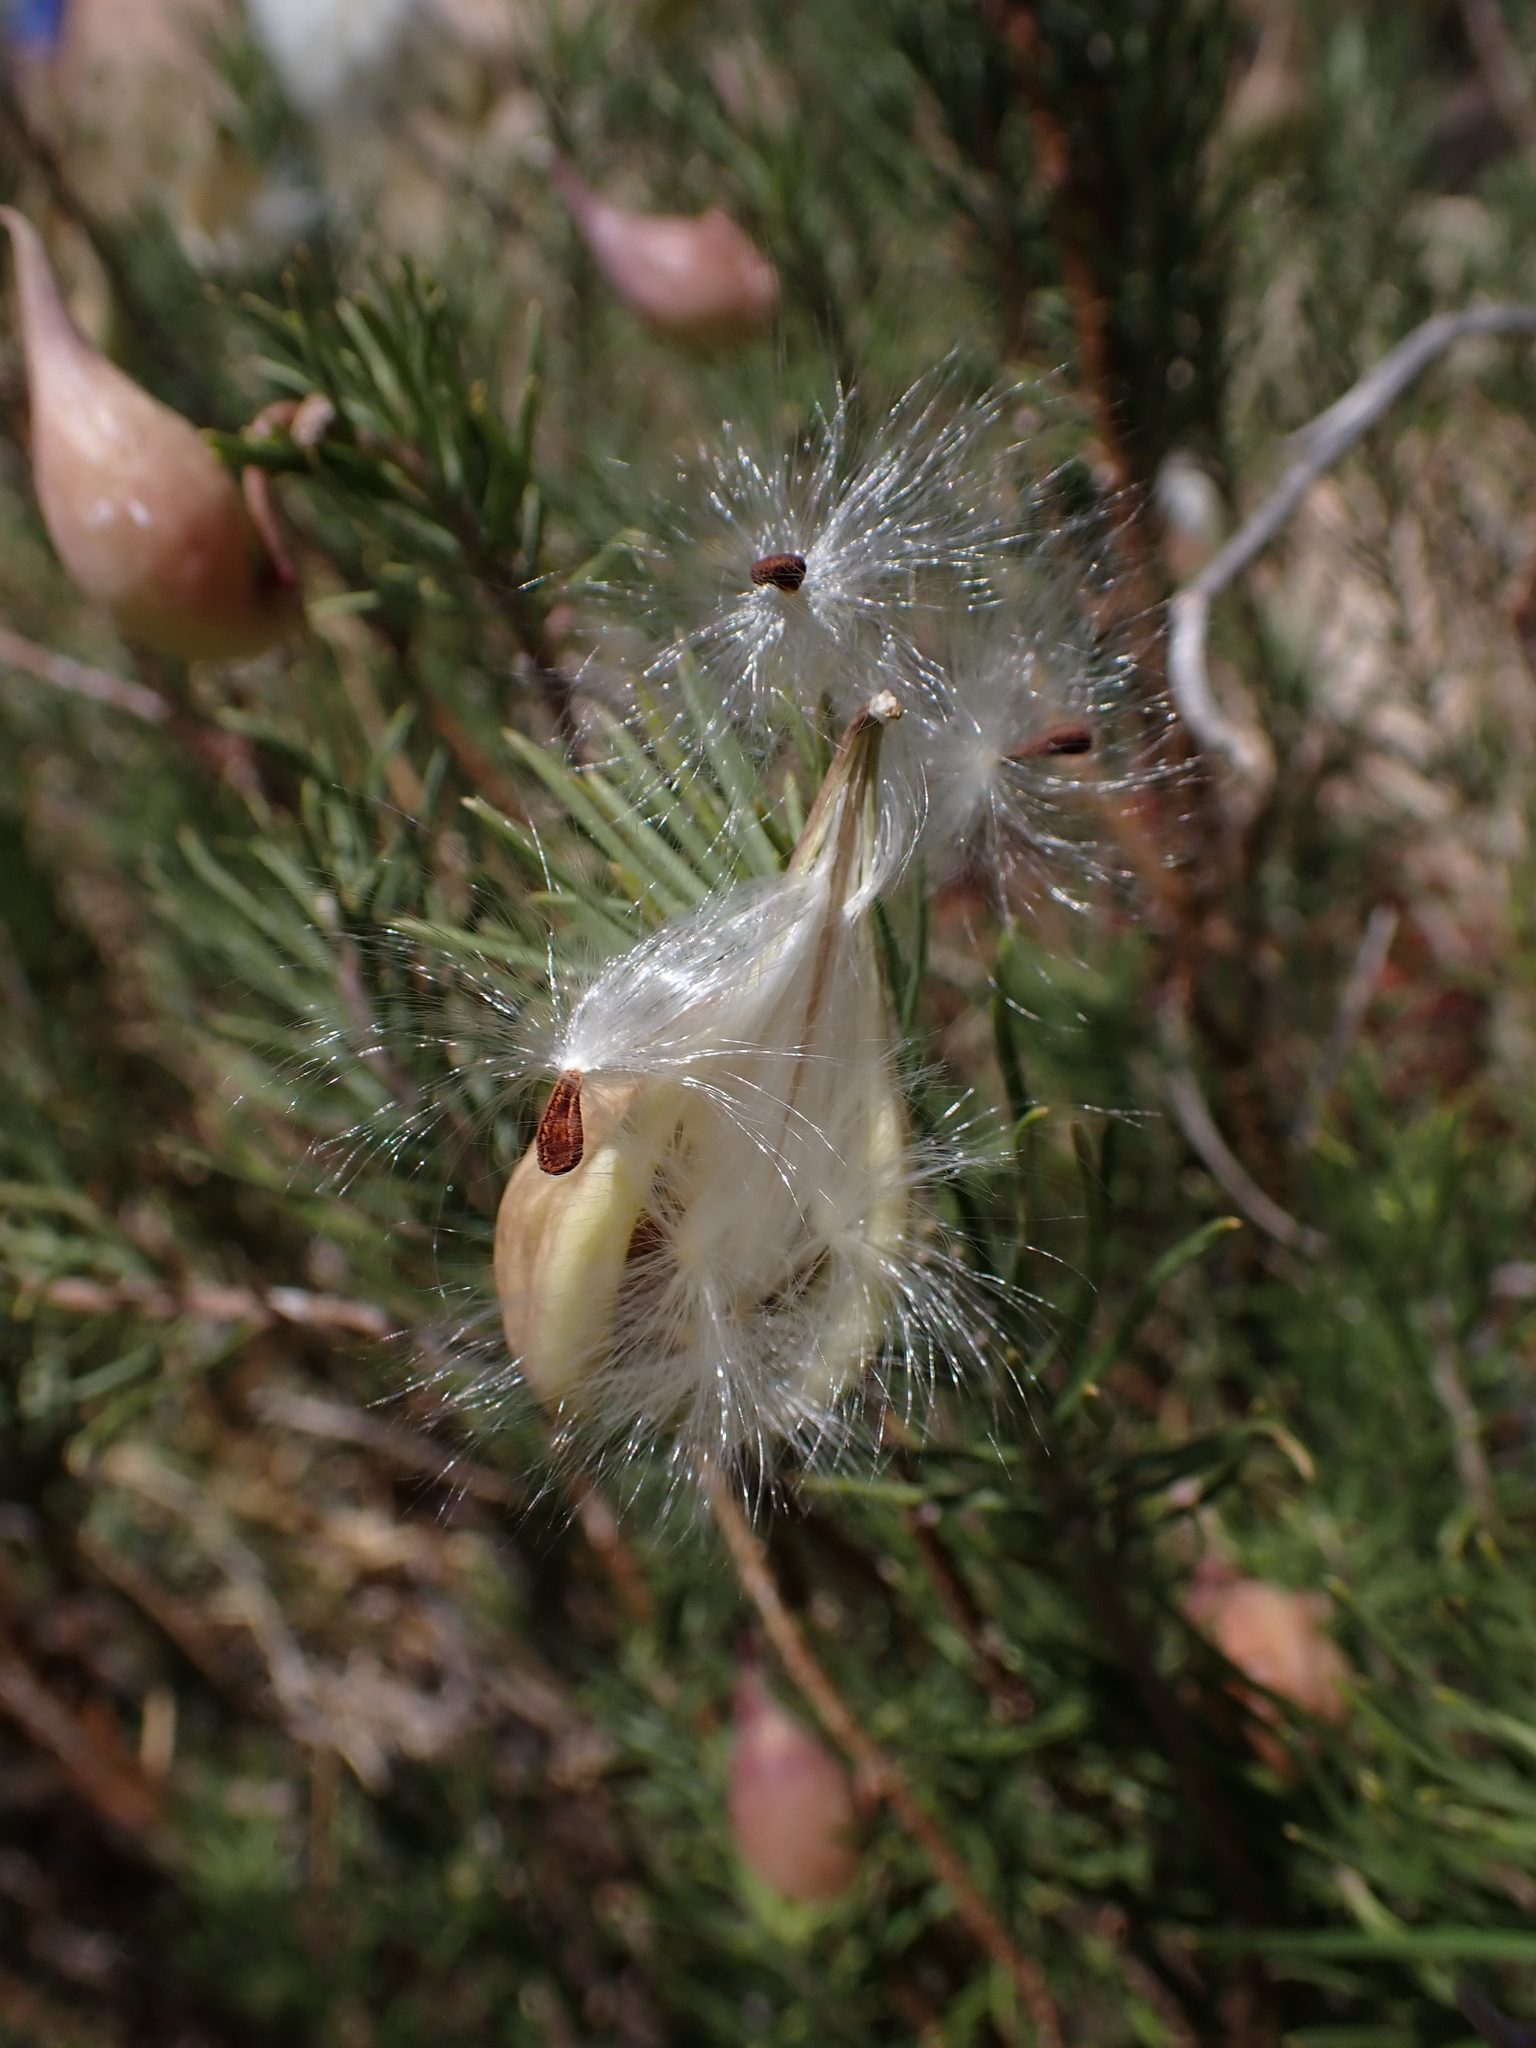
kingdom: Plantae
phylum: Tracheophyta
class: Magnoliopsida
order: Gentianales
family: Apocynaceae
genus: Asclepias
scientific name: Asclepias linaria
